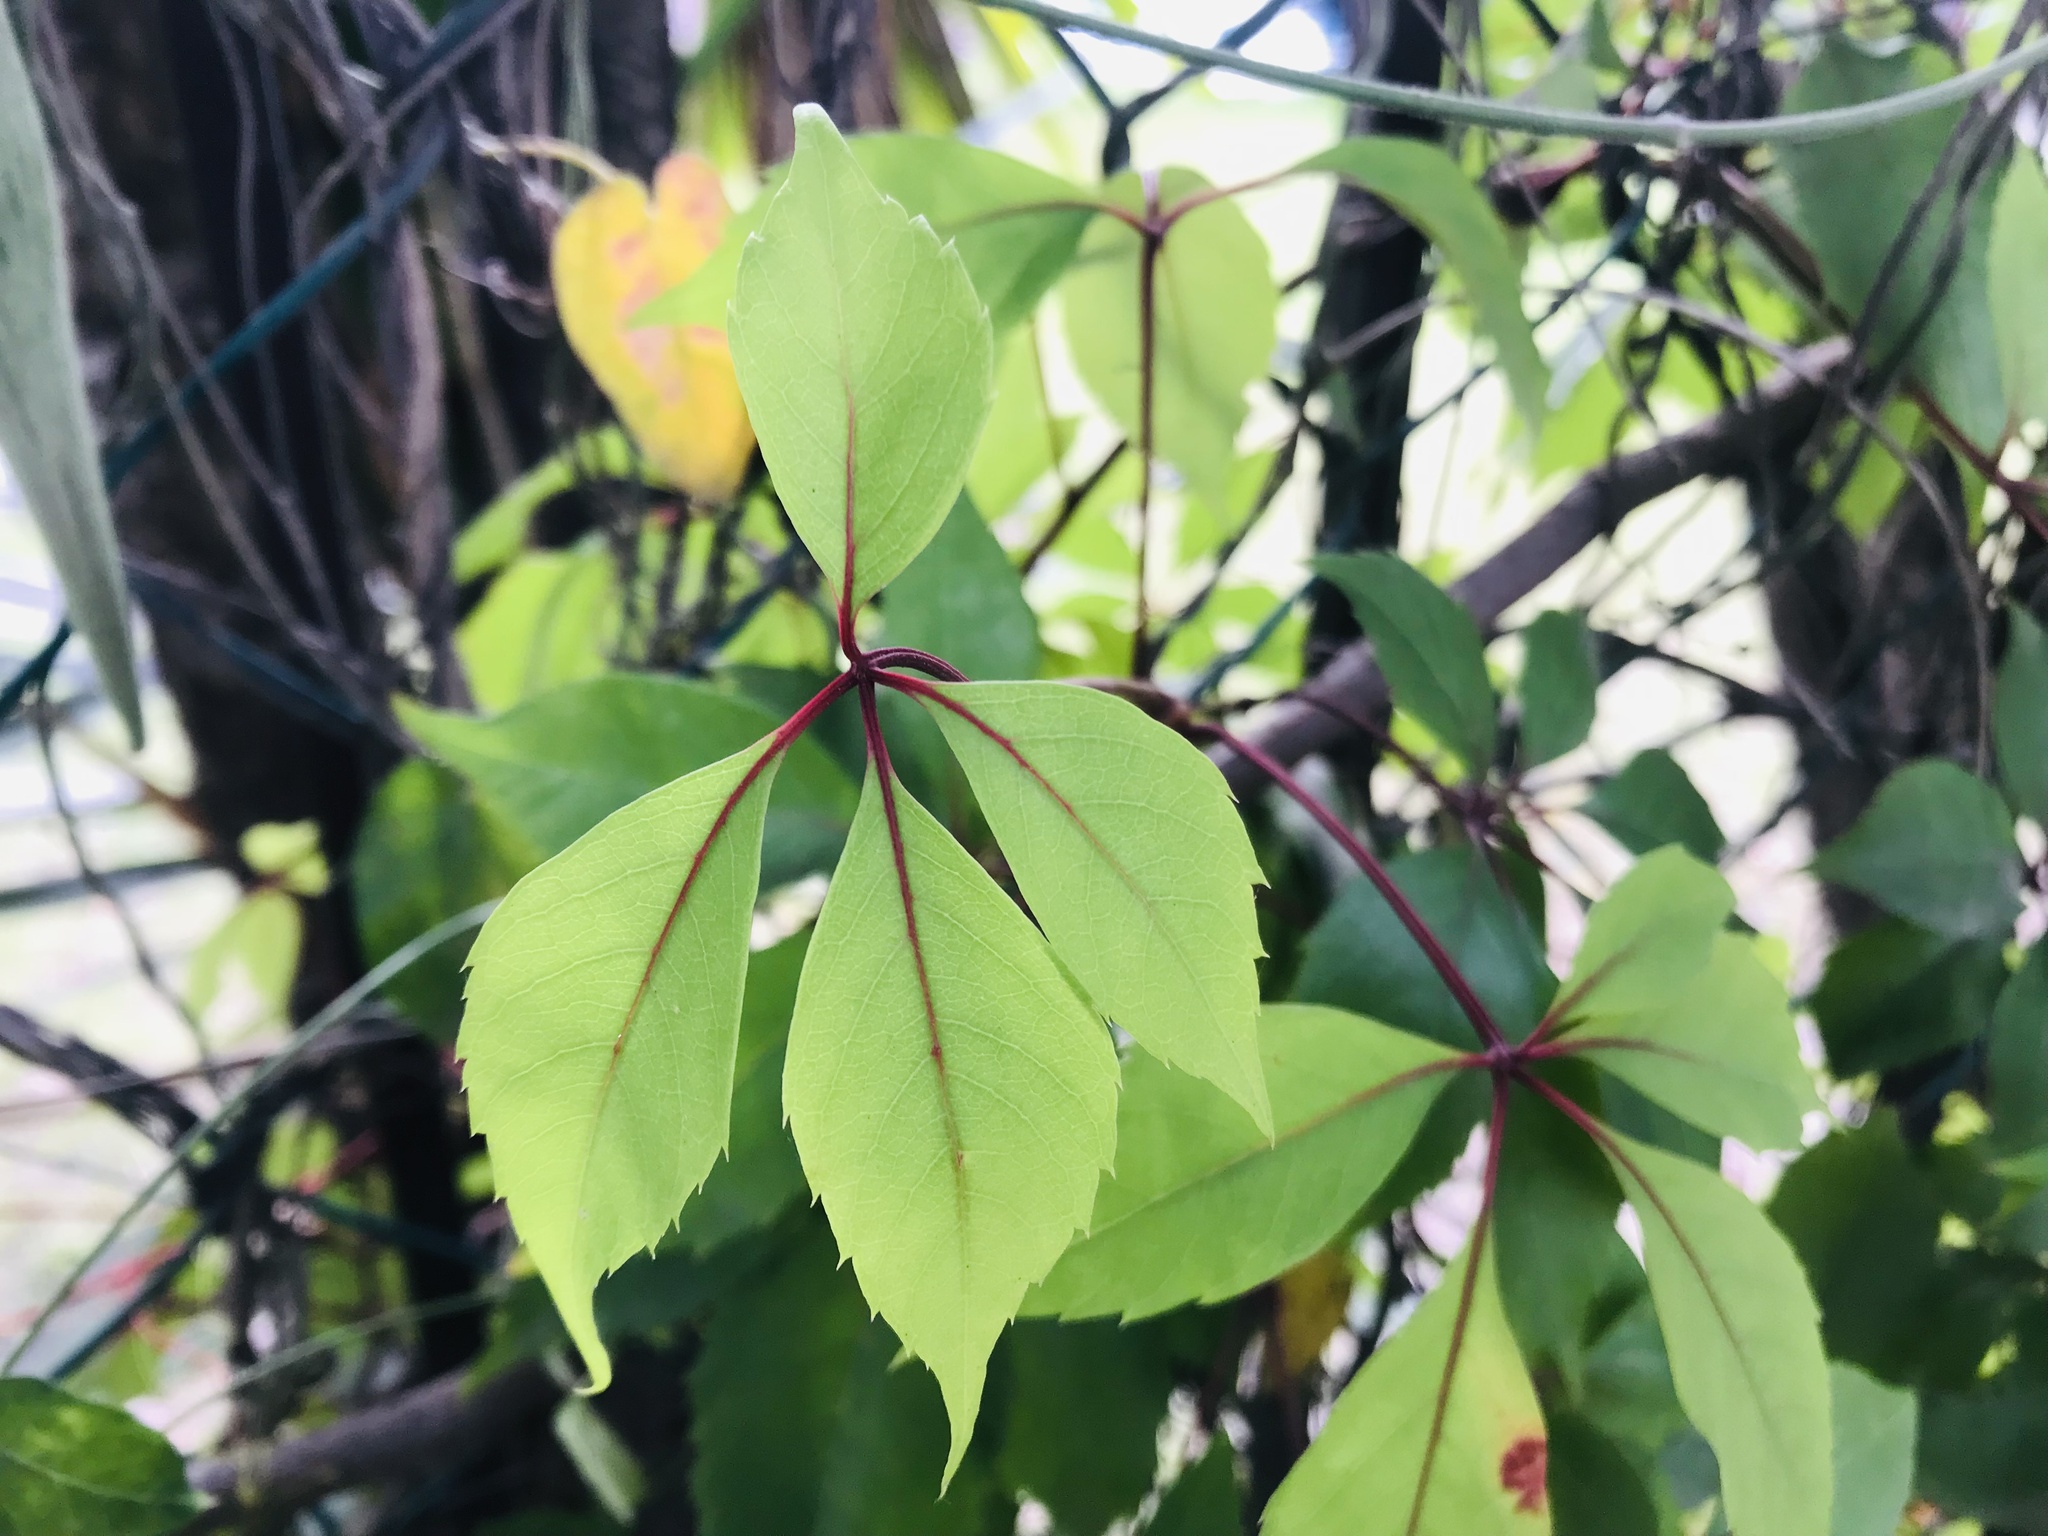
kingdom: Plantae
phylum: Tracheophyta
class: Magnoliopsida
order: Vitales
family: Vitaceae
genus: Parthenocissus
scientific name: Parthenocissus quinquefolia
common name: Virginia-creeper
